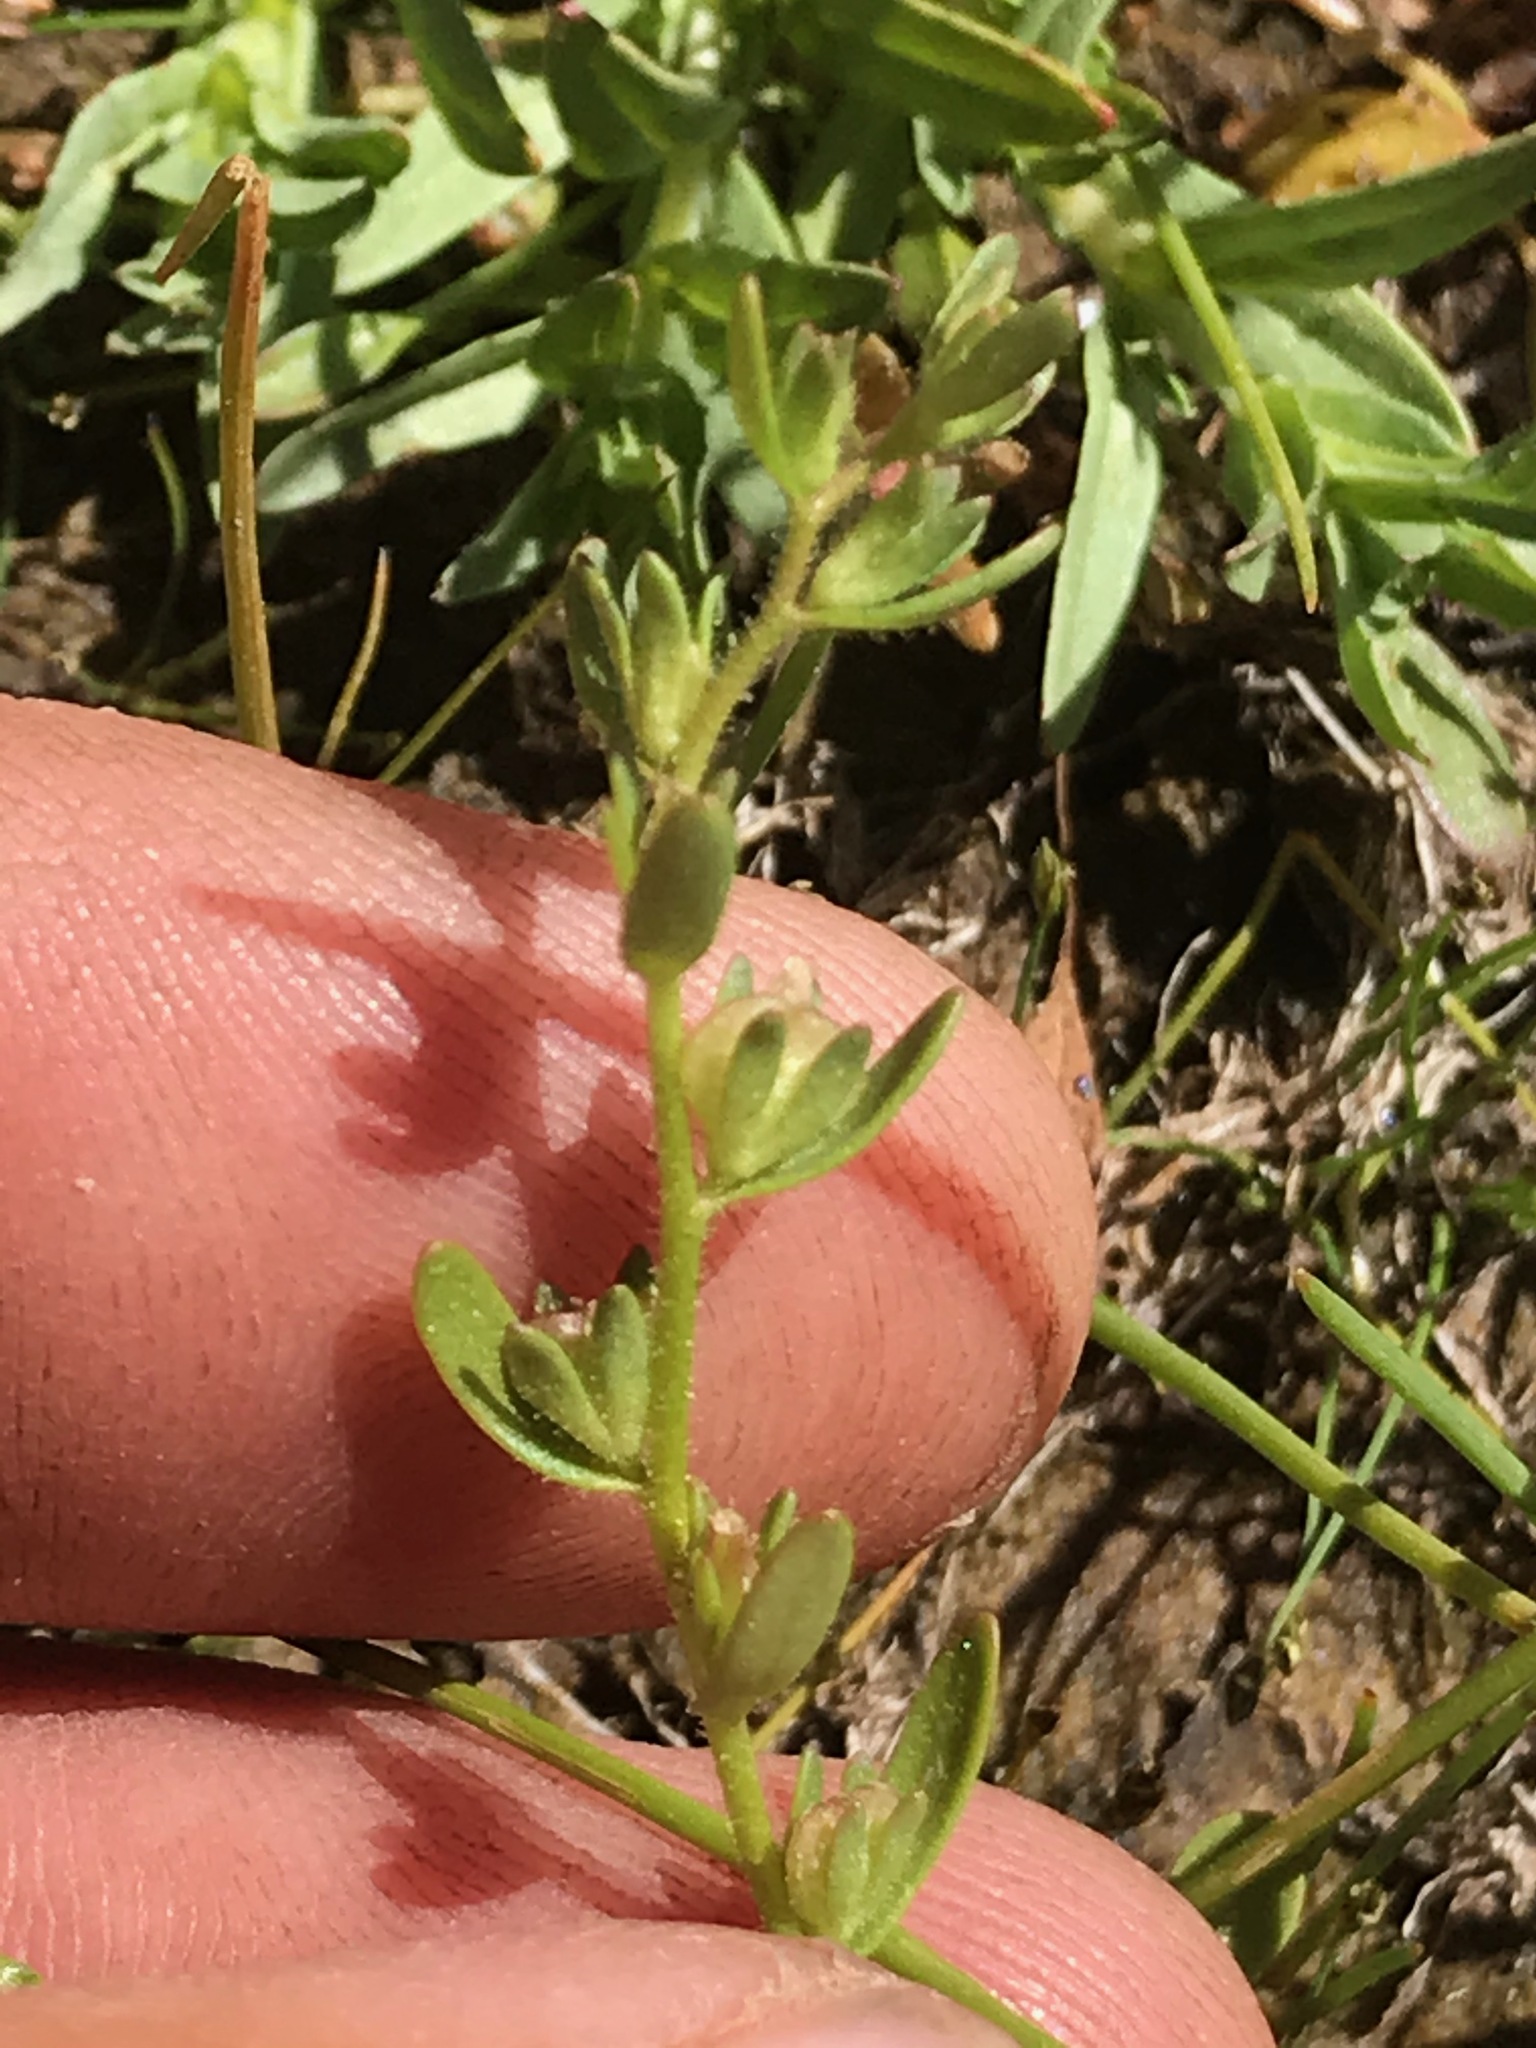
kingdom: Plantae
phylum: Tracheophyta
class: Magnoliopsida
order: Lamiales
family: Plantaginaceae
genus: Veronica
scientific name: Veronica peregrina
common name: Neckweed
